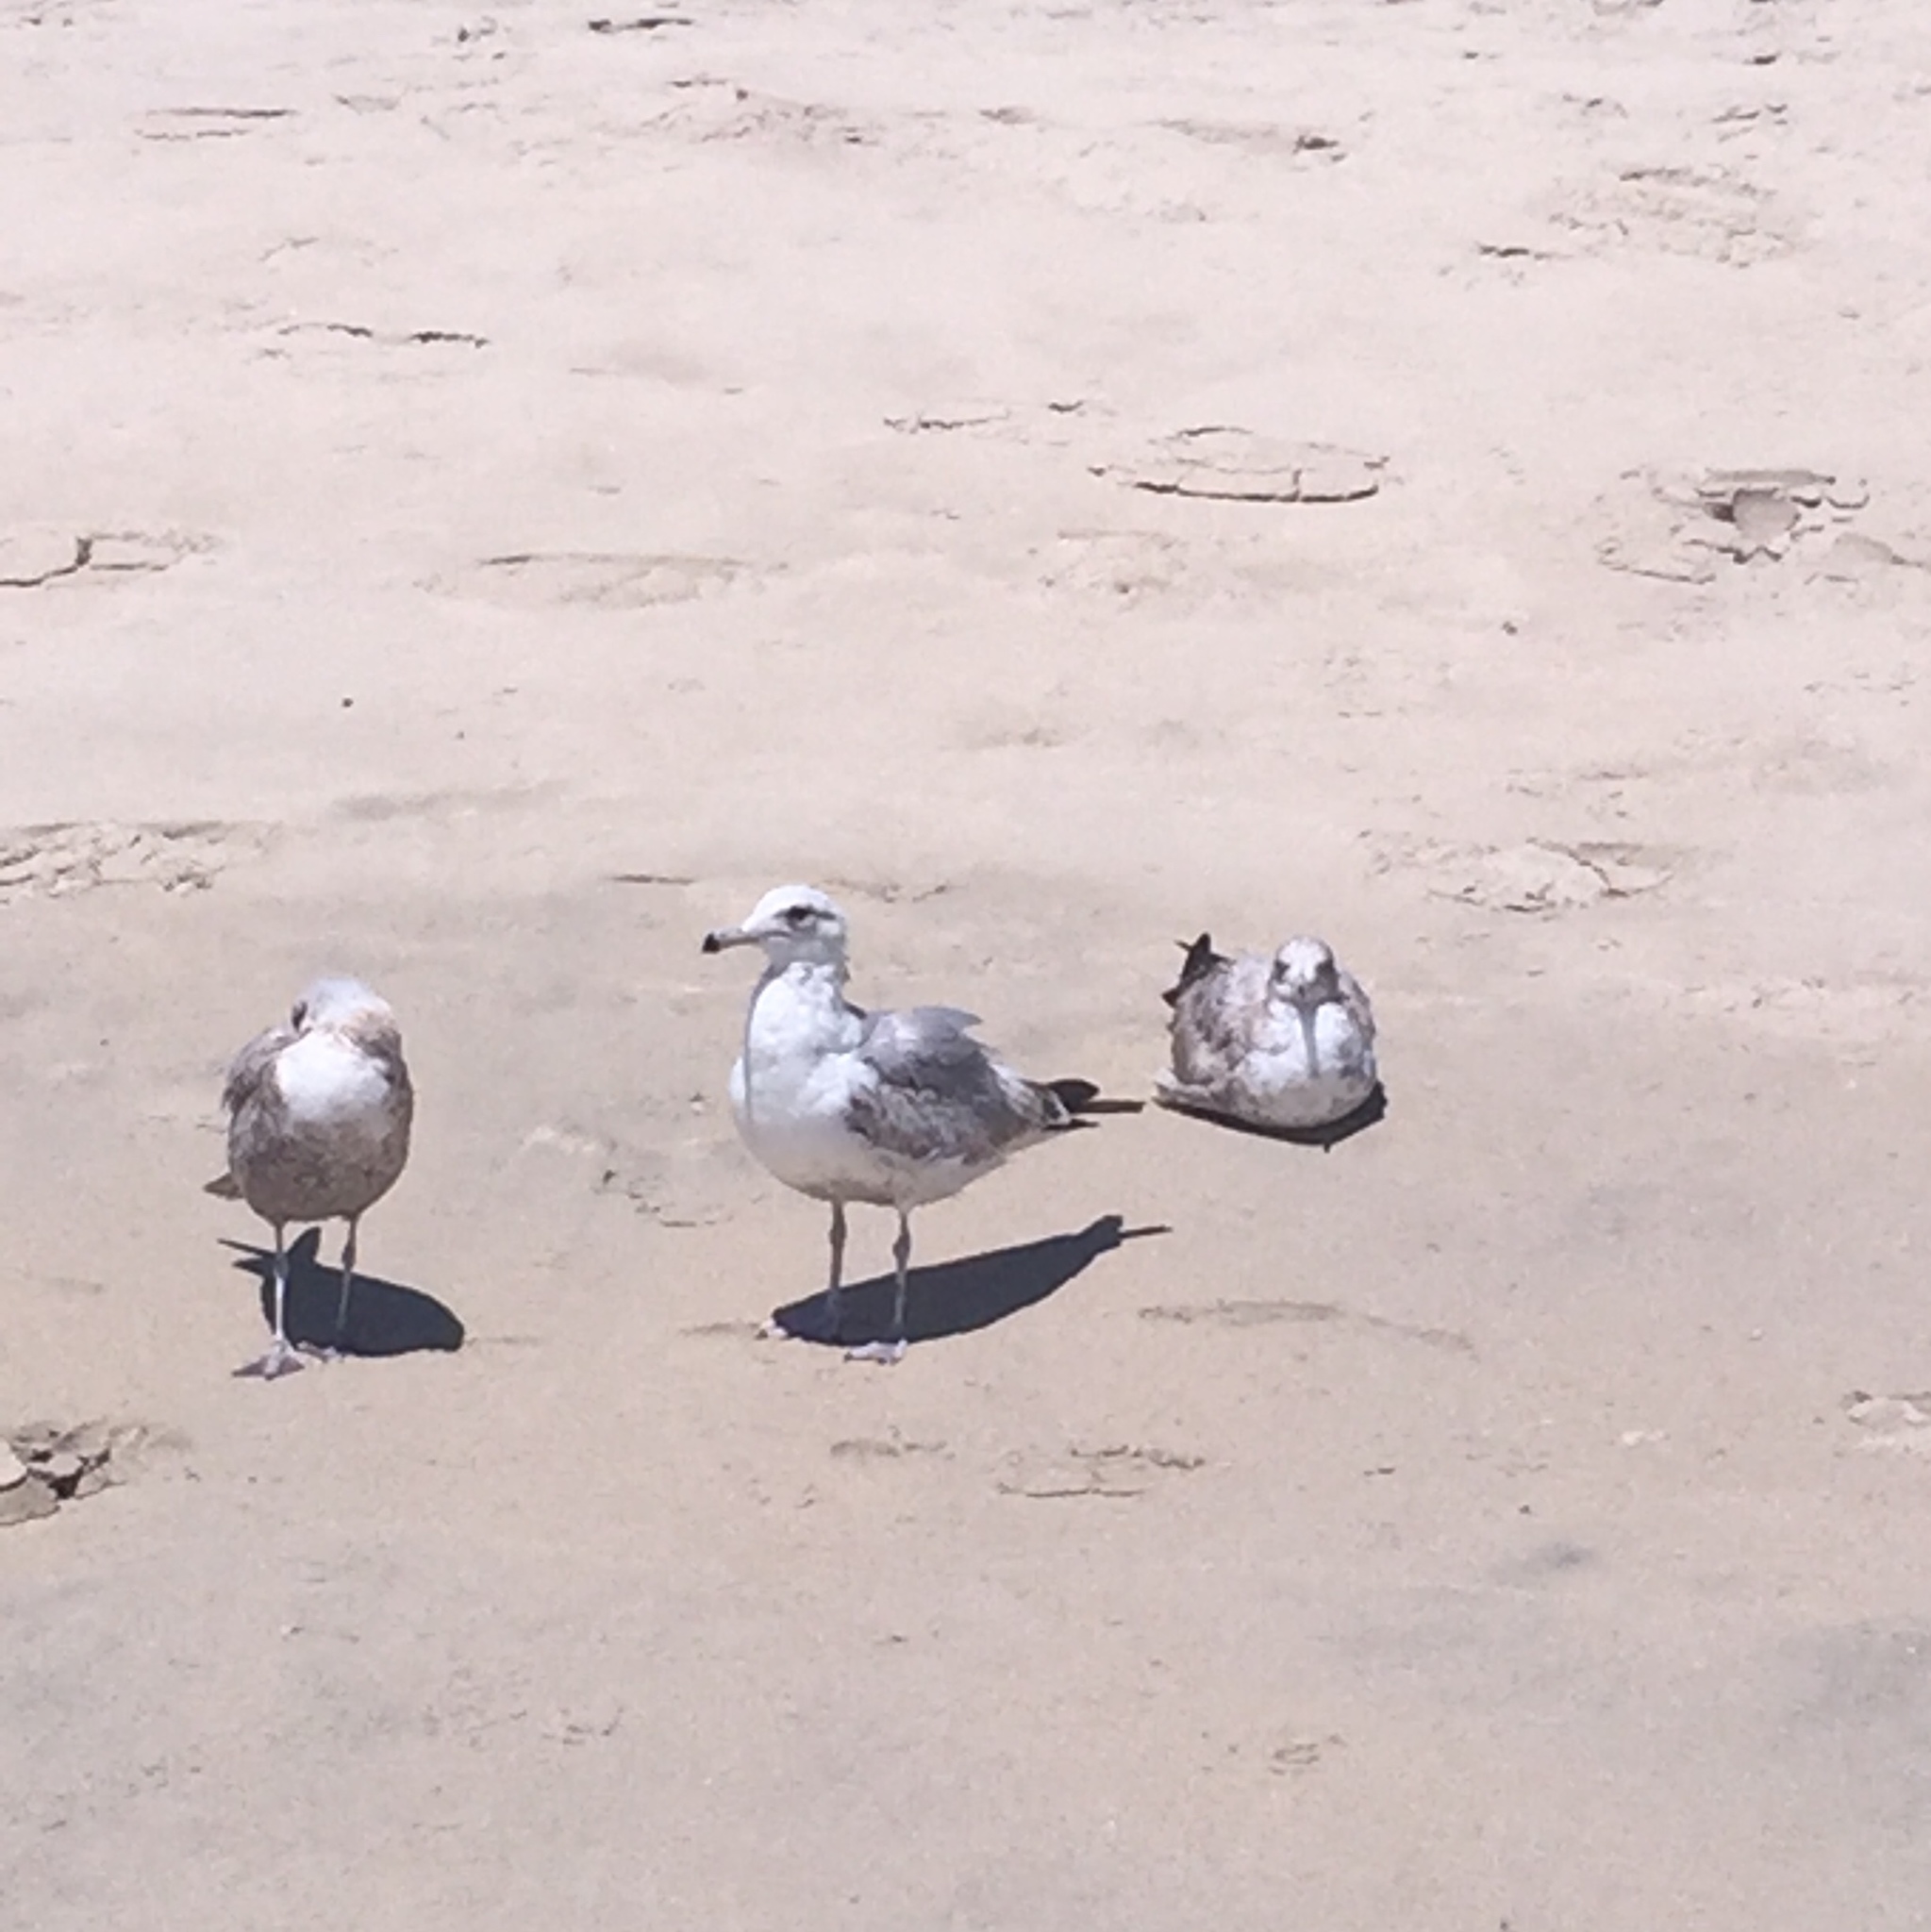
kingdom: Animalia
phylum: Chordata
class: Aves
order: Charadriiformes
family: Laridae
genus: Larus
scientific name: Larus californicus
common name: California gull
